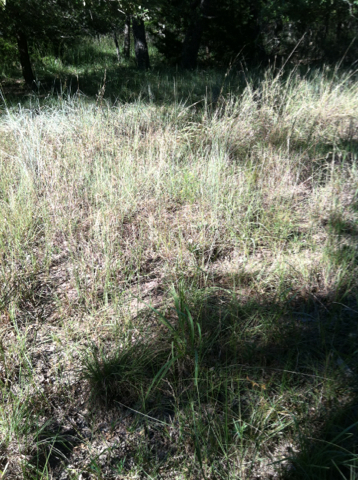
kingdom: Plantae
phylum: Tracheophyta
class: Liliopsida
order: Poales
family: Poaceae
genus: Bouteloua
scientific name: Bouteloua curtipendula
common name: Side-oats grama
